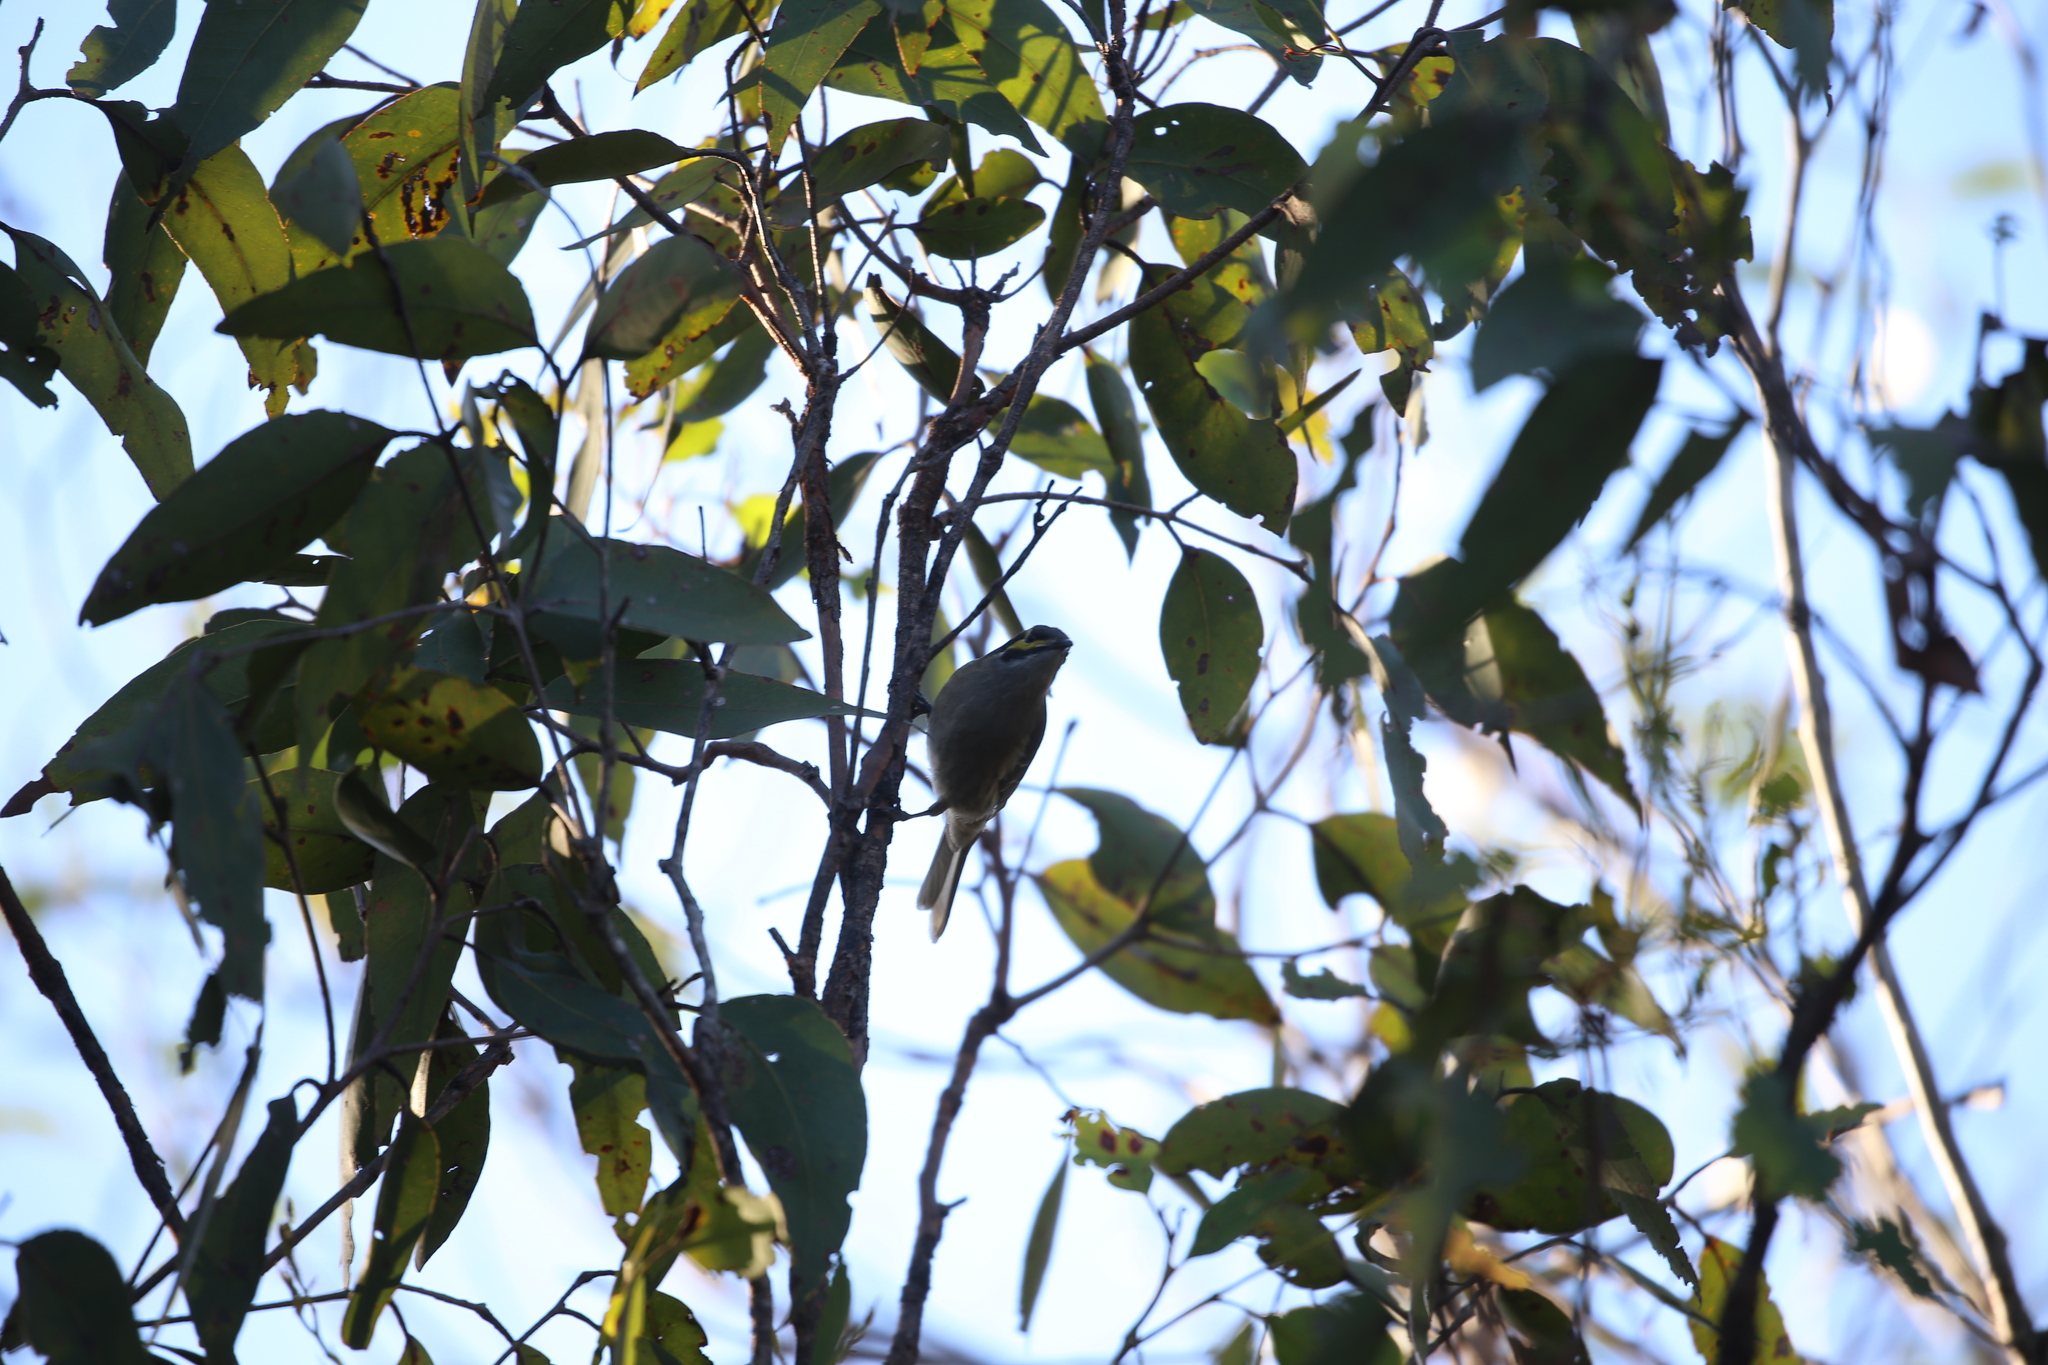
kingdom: Animalia
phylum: Chordata
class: Aves
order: Passeriformes
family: Meliphagidae
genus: Caligavis
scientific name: Caligavis chrysops
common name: Yellow-faced honeyeater
